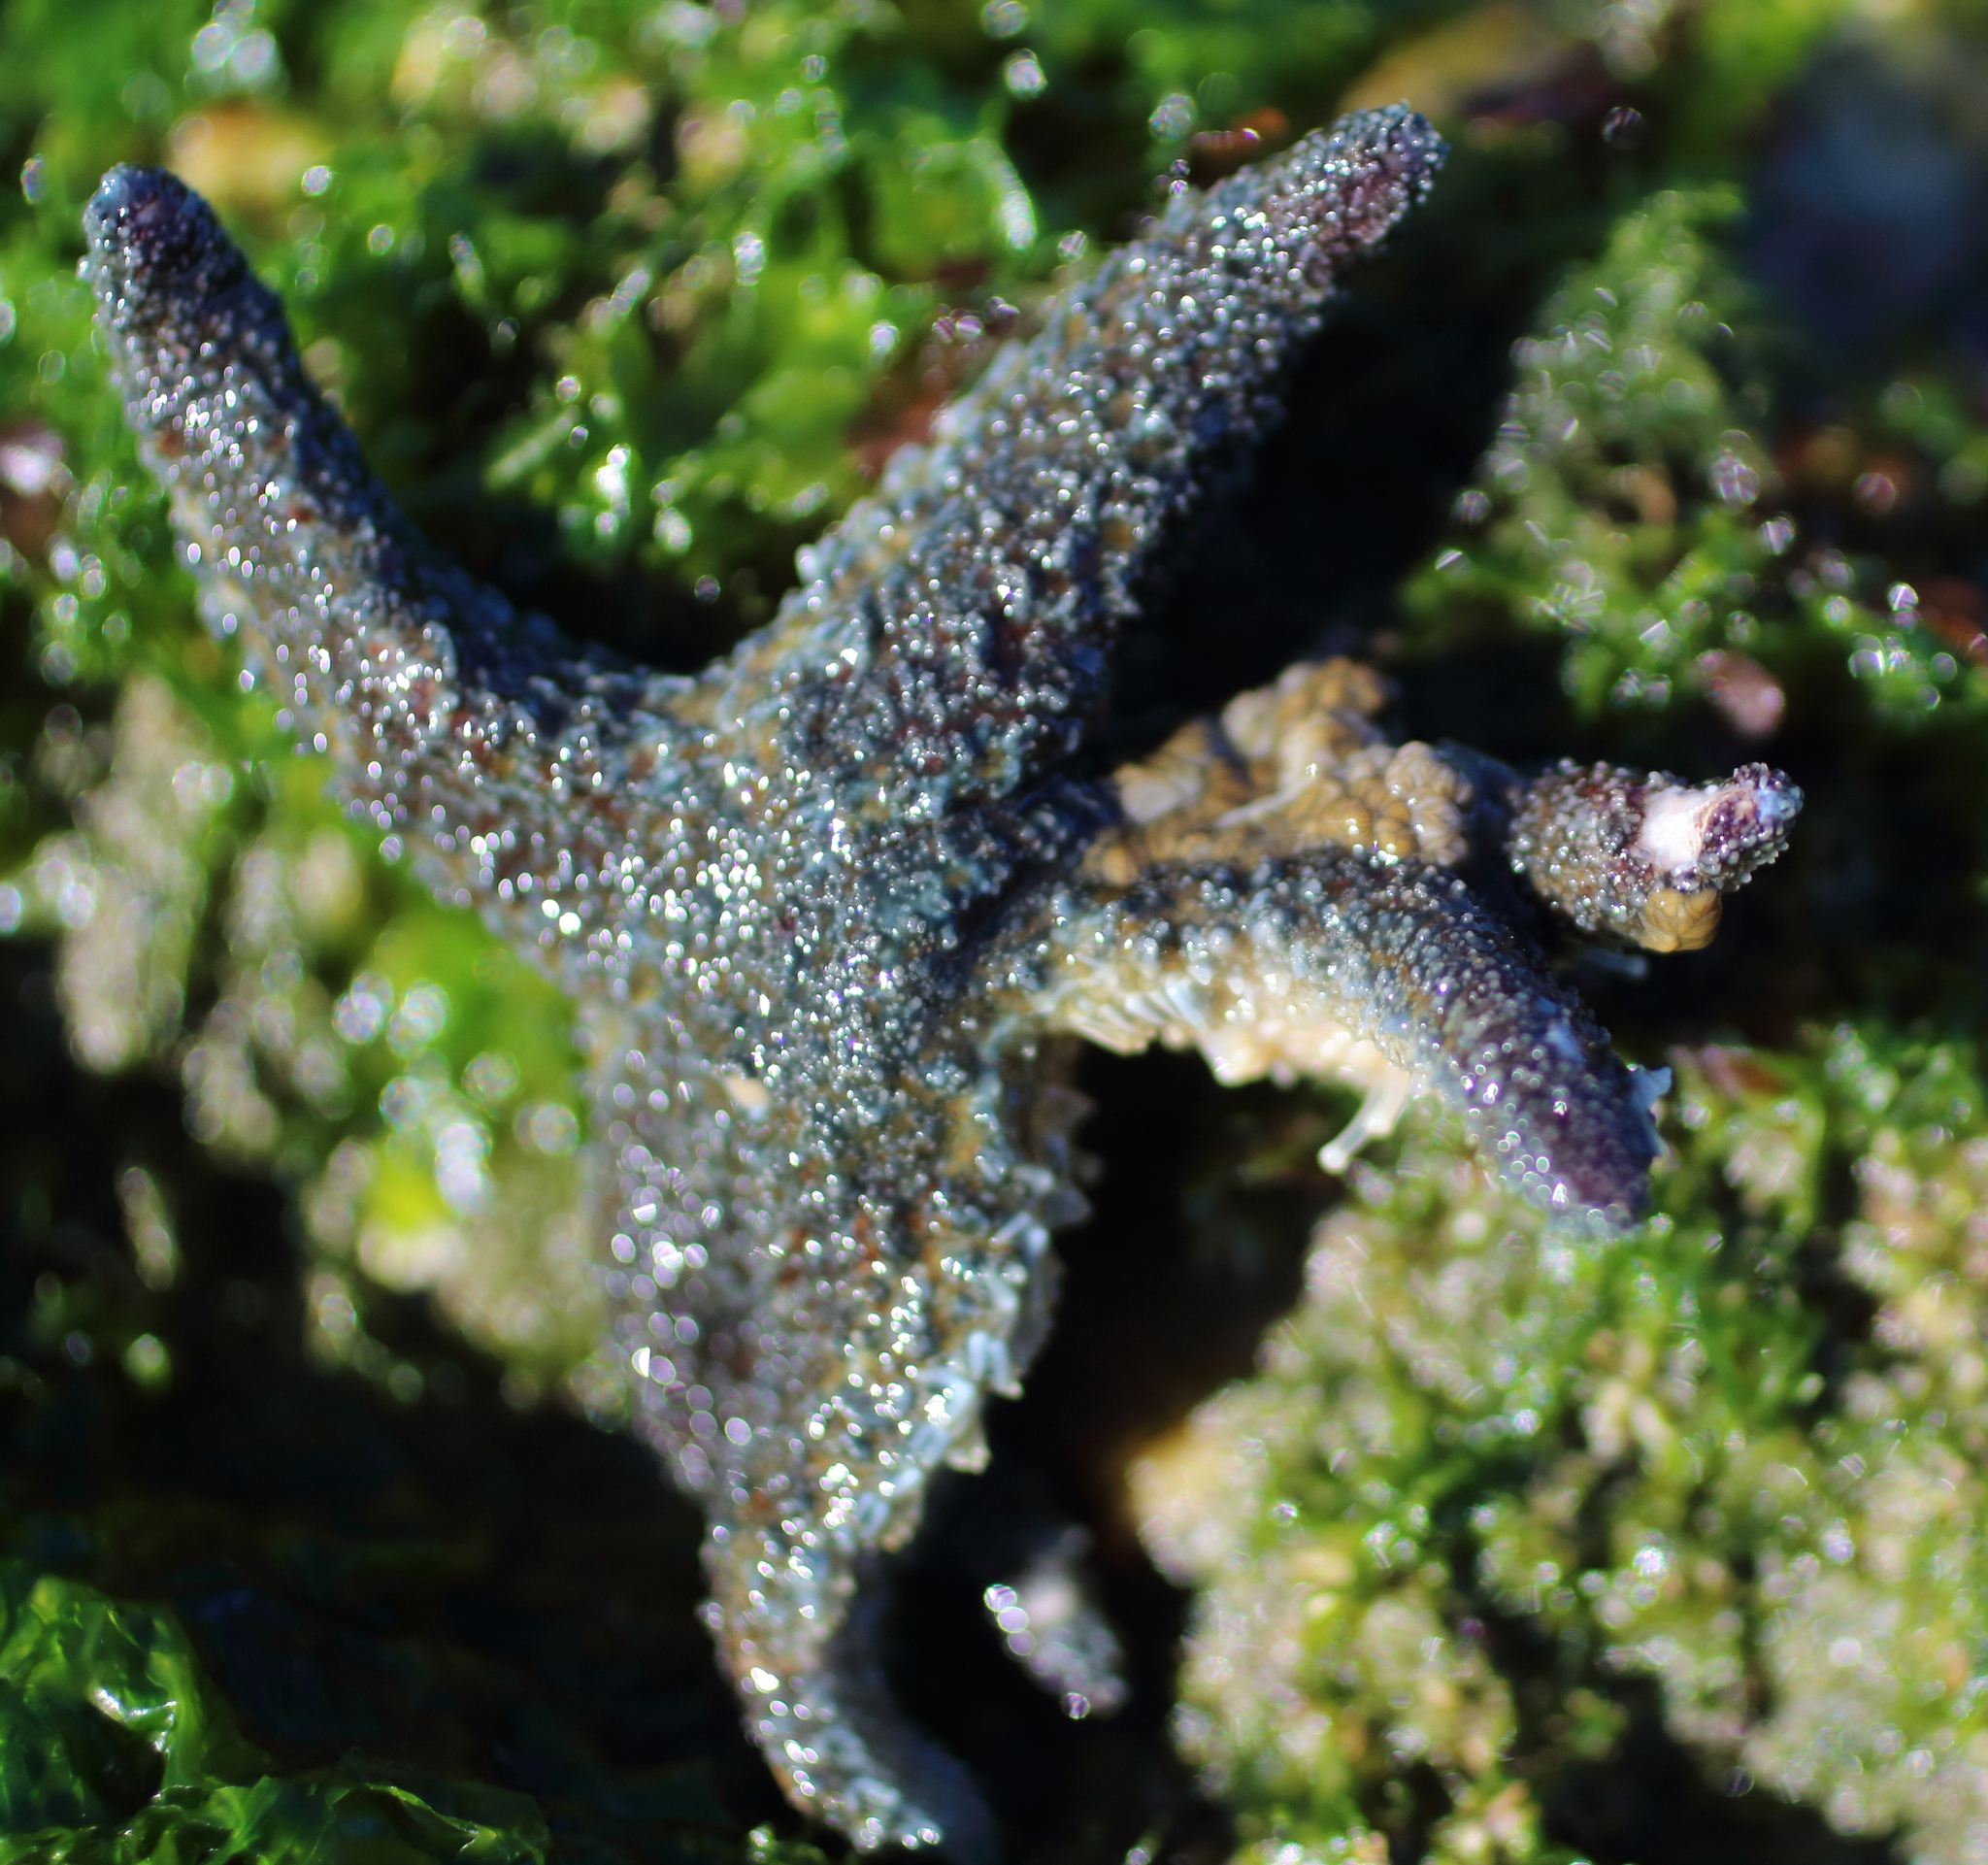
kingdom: Animalia
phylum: Echinodermata
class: Asteroidea
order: Forcipulatida
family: Asteriidae
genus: Leptasterias
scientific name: Leptasterias hexactis
